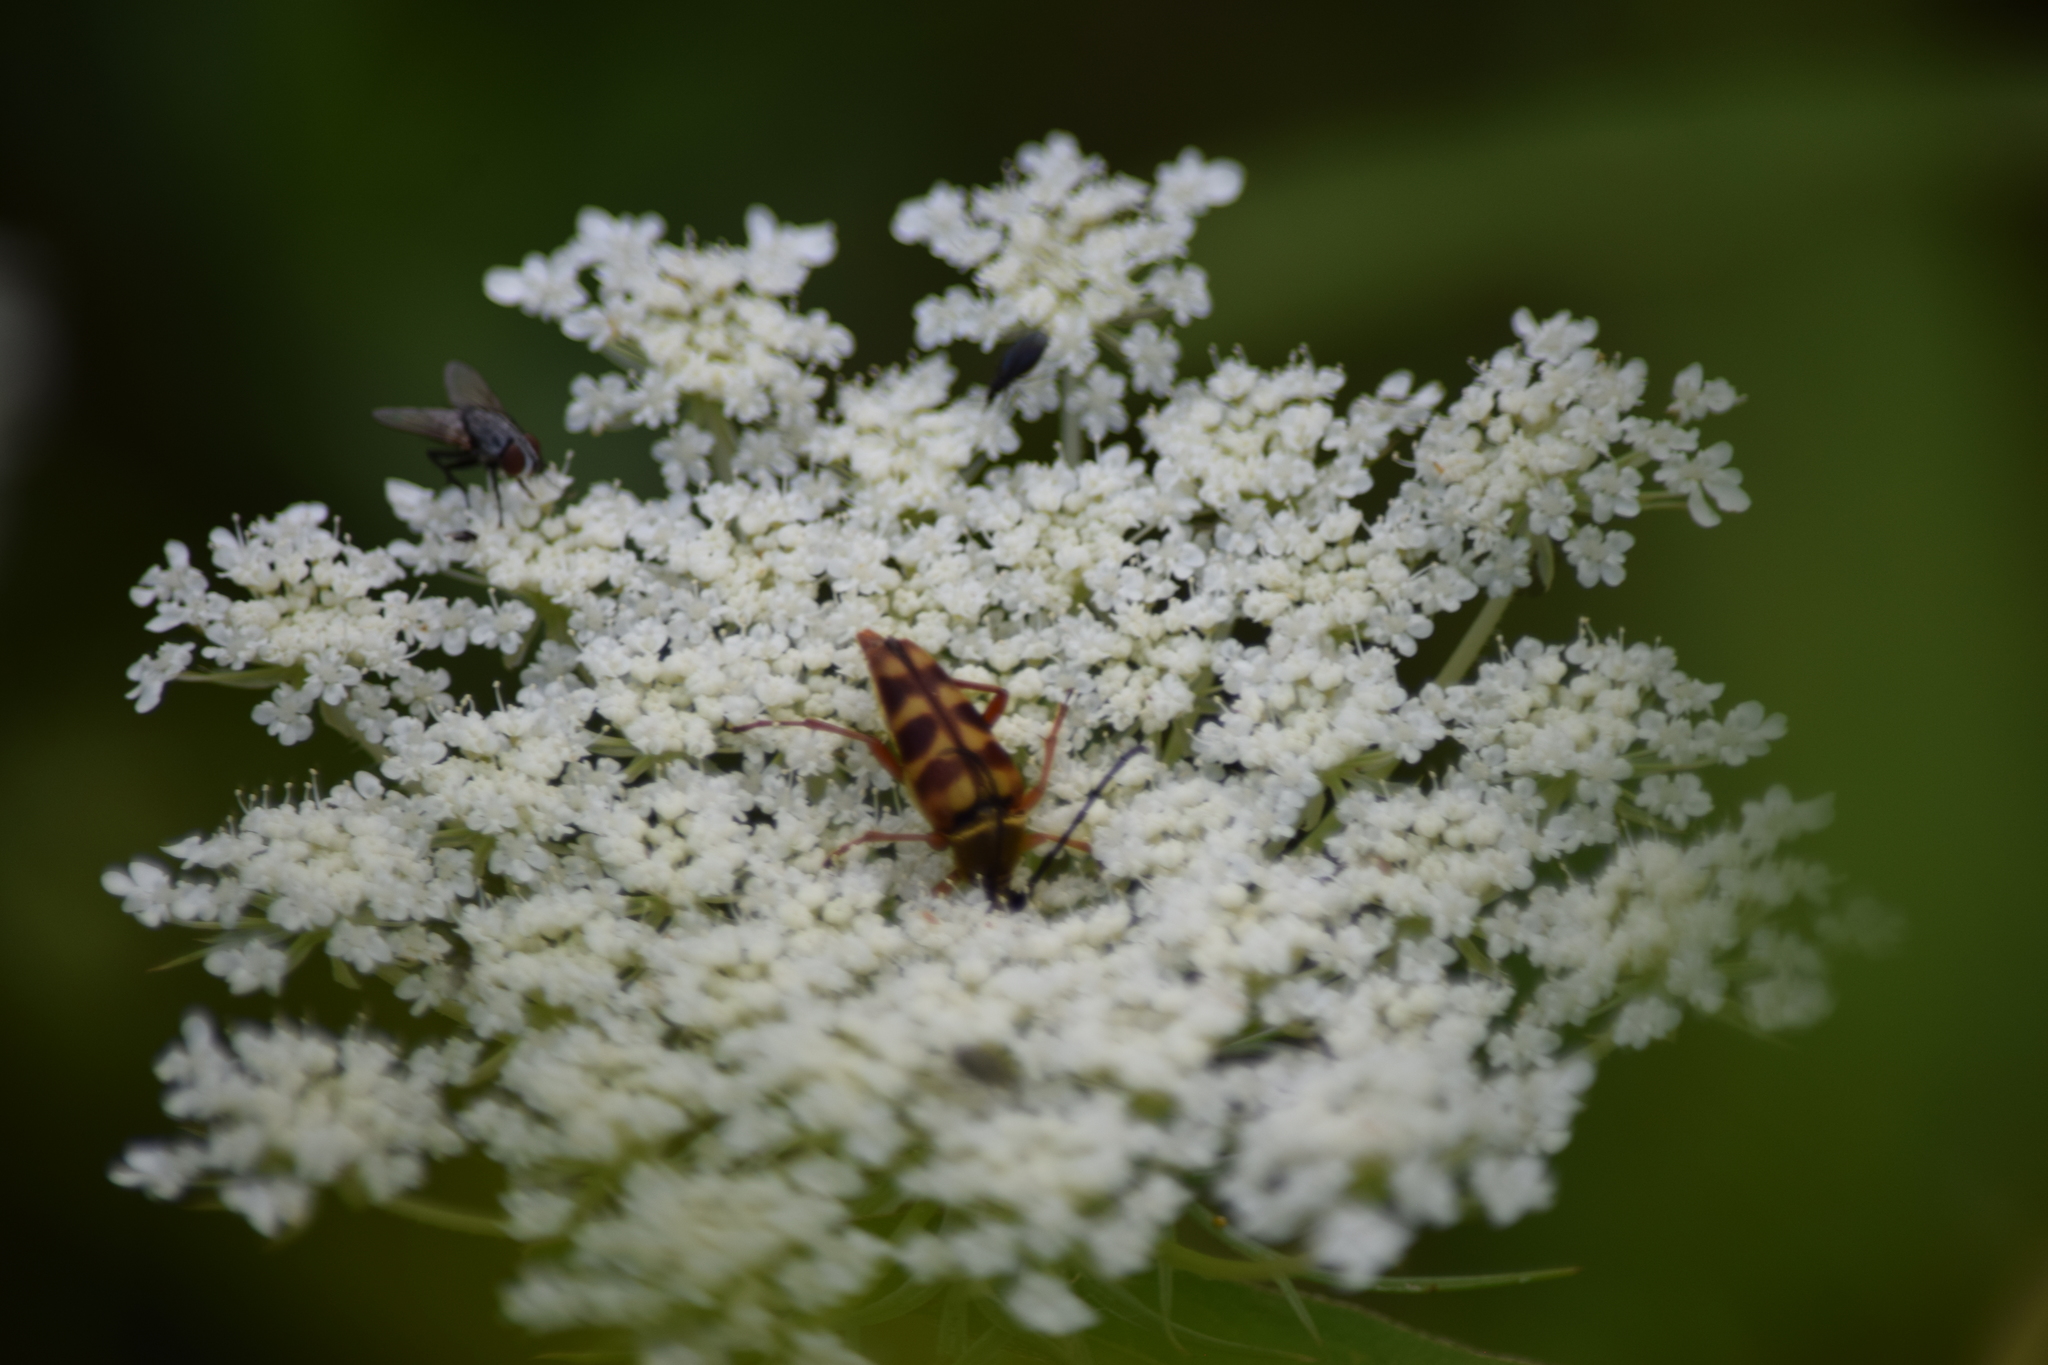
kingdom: Animalia
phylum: Arthropoda
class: Insecta
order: Coleoptera
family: Cerambycidae
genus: Typocerus
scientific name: Typocerus velutinus
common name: Banded longhorn beetle
